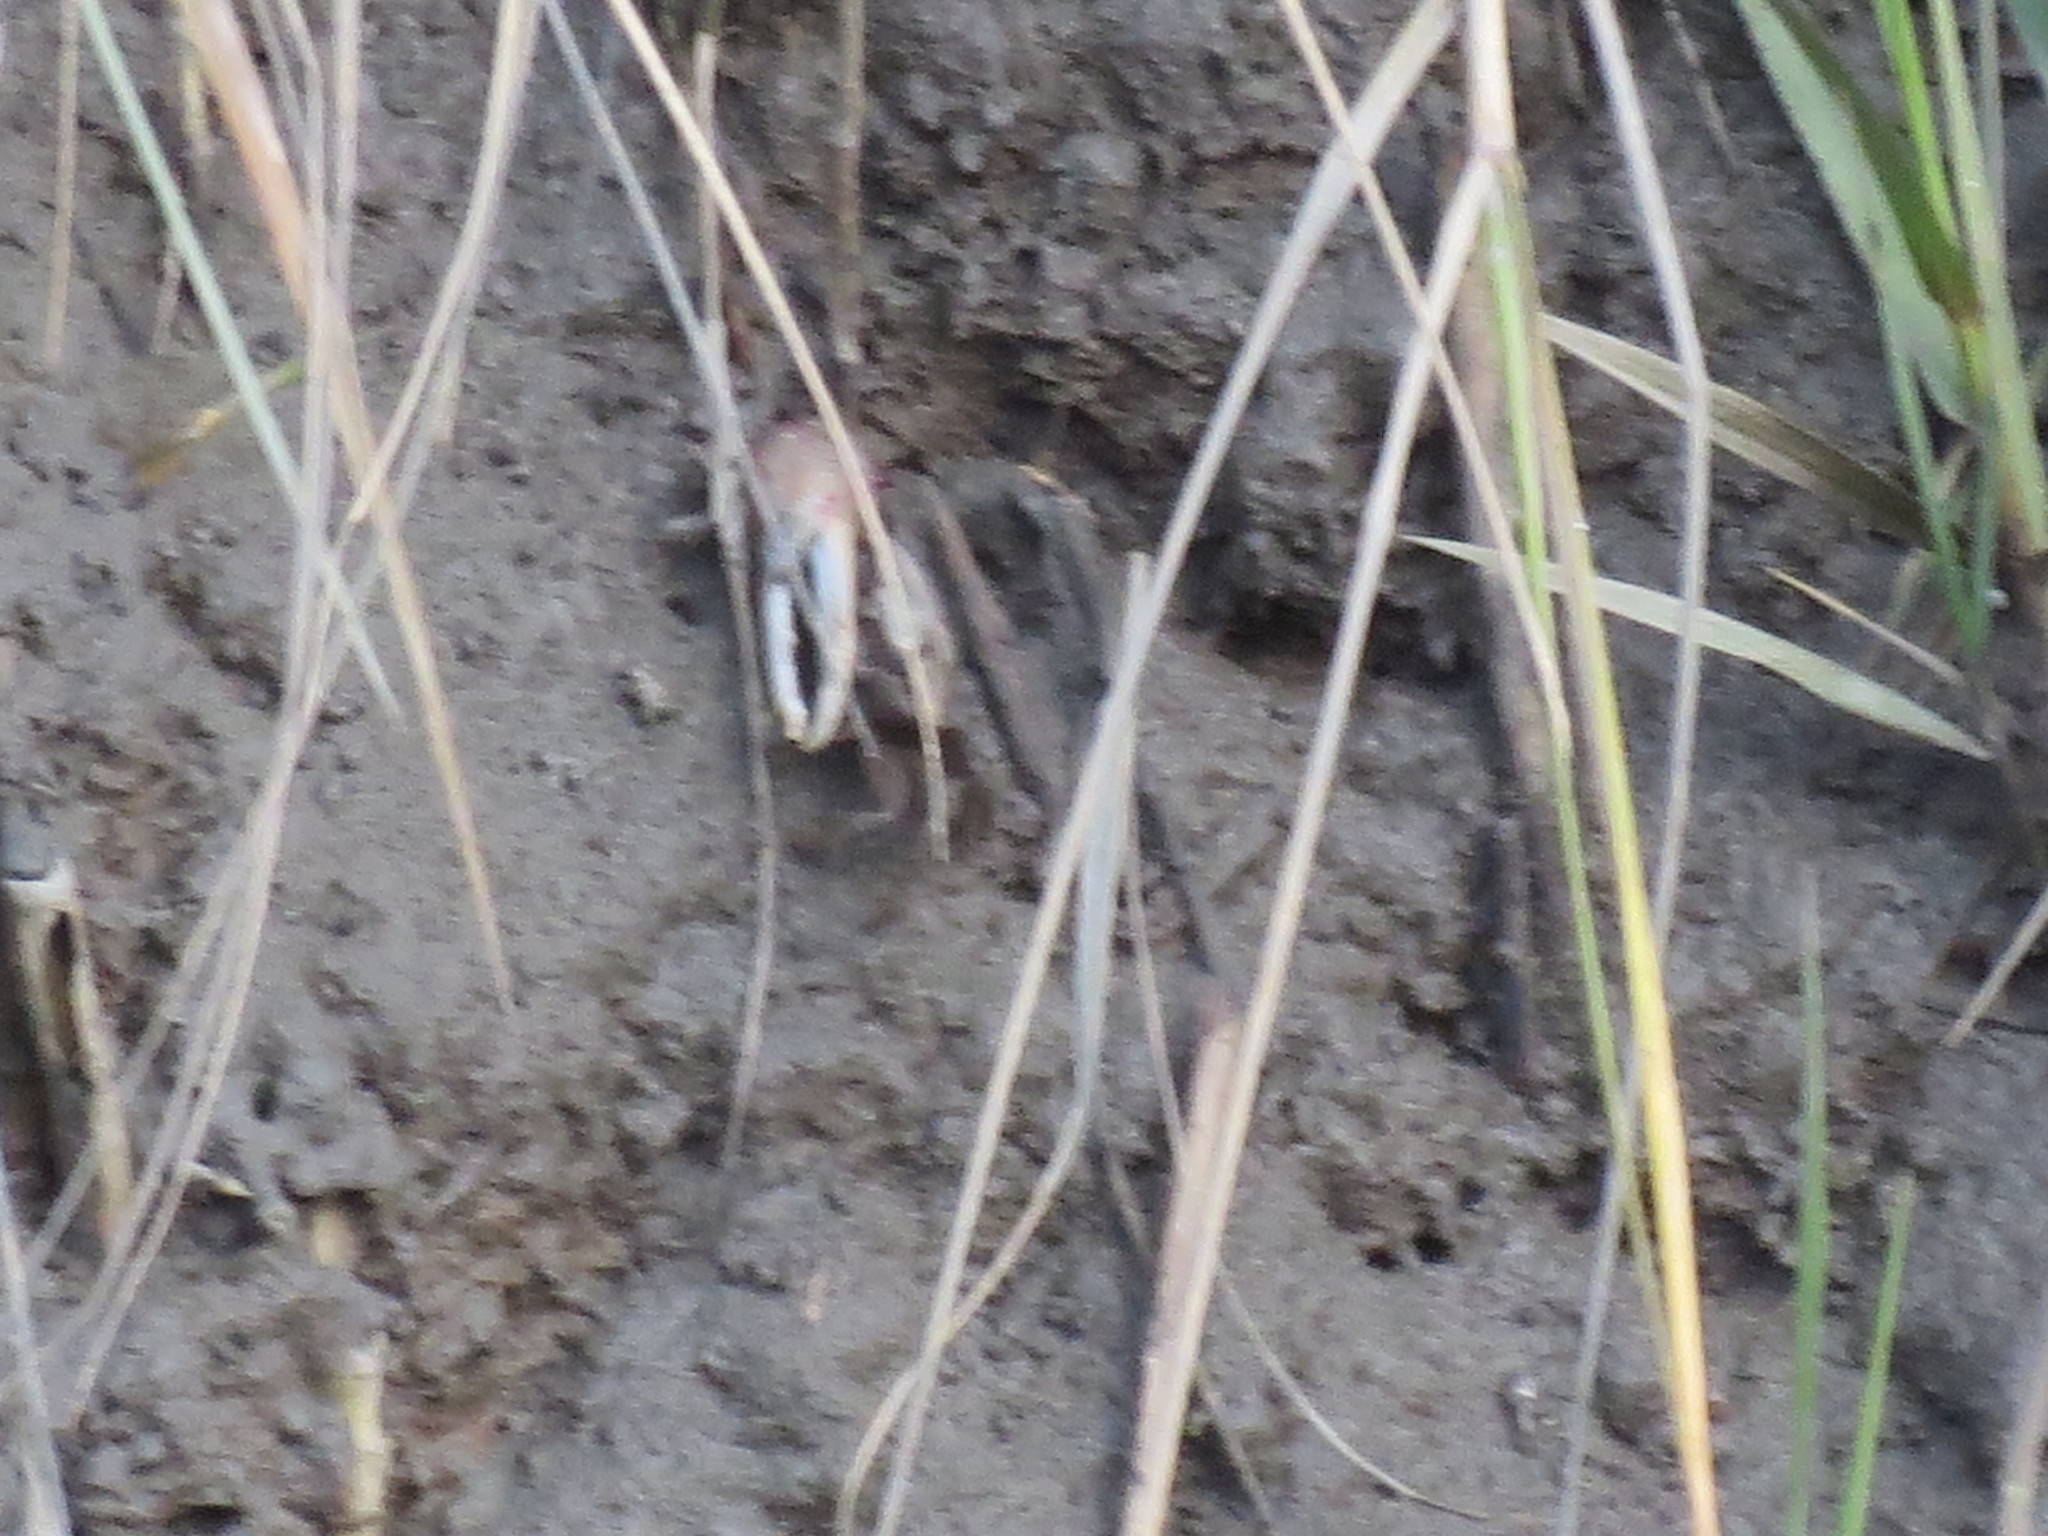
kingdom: Animalia
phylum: Arthropoda
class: Malacostraca
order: Decapoda
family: Ocypodidae
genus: Minuca
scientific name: Minuca minax
